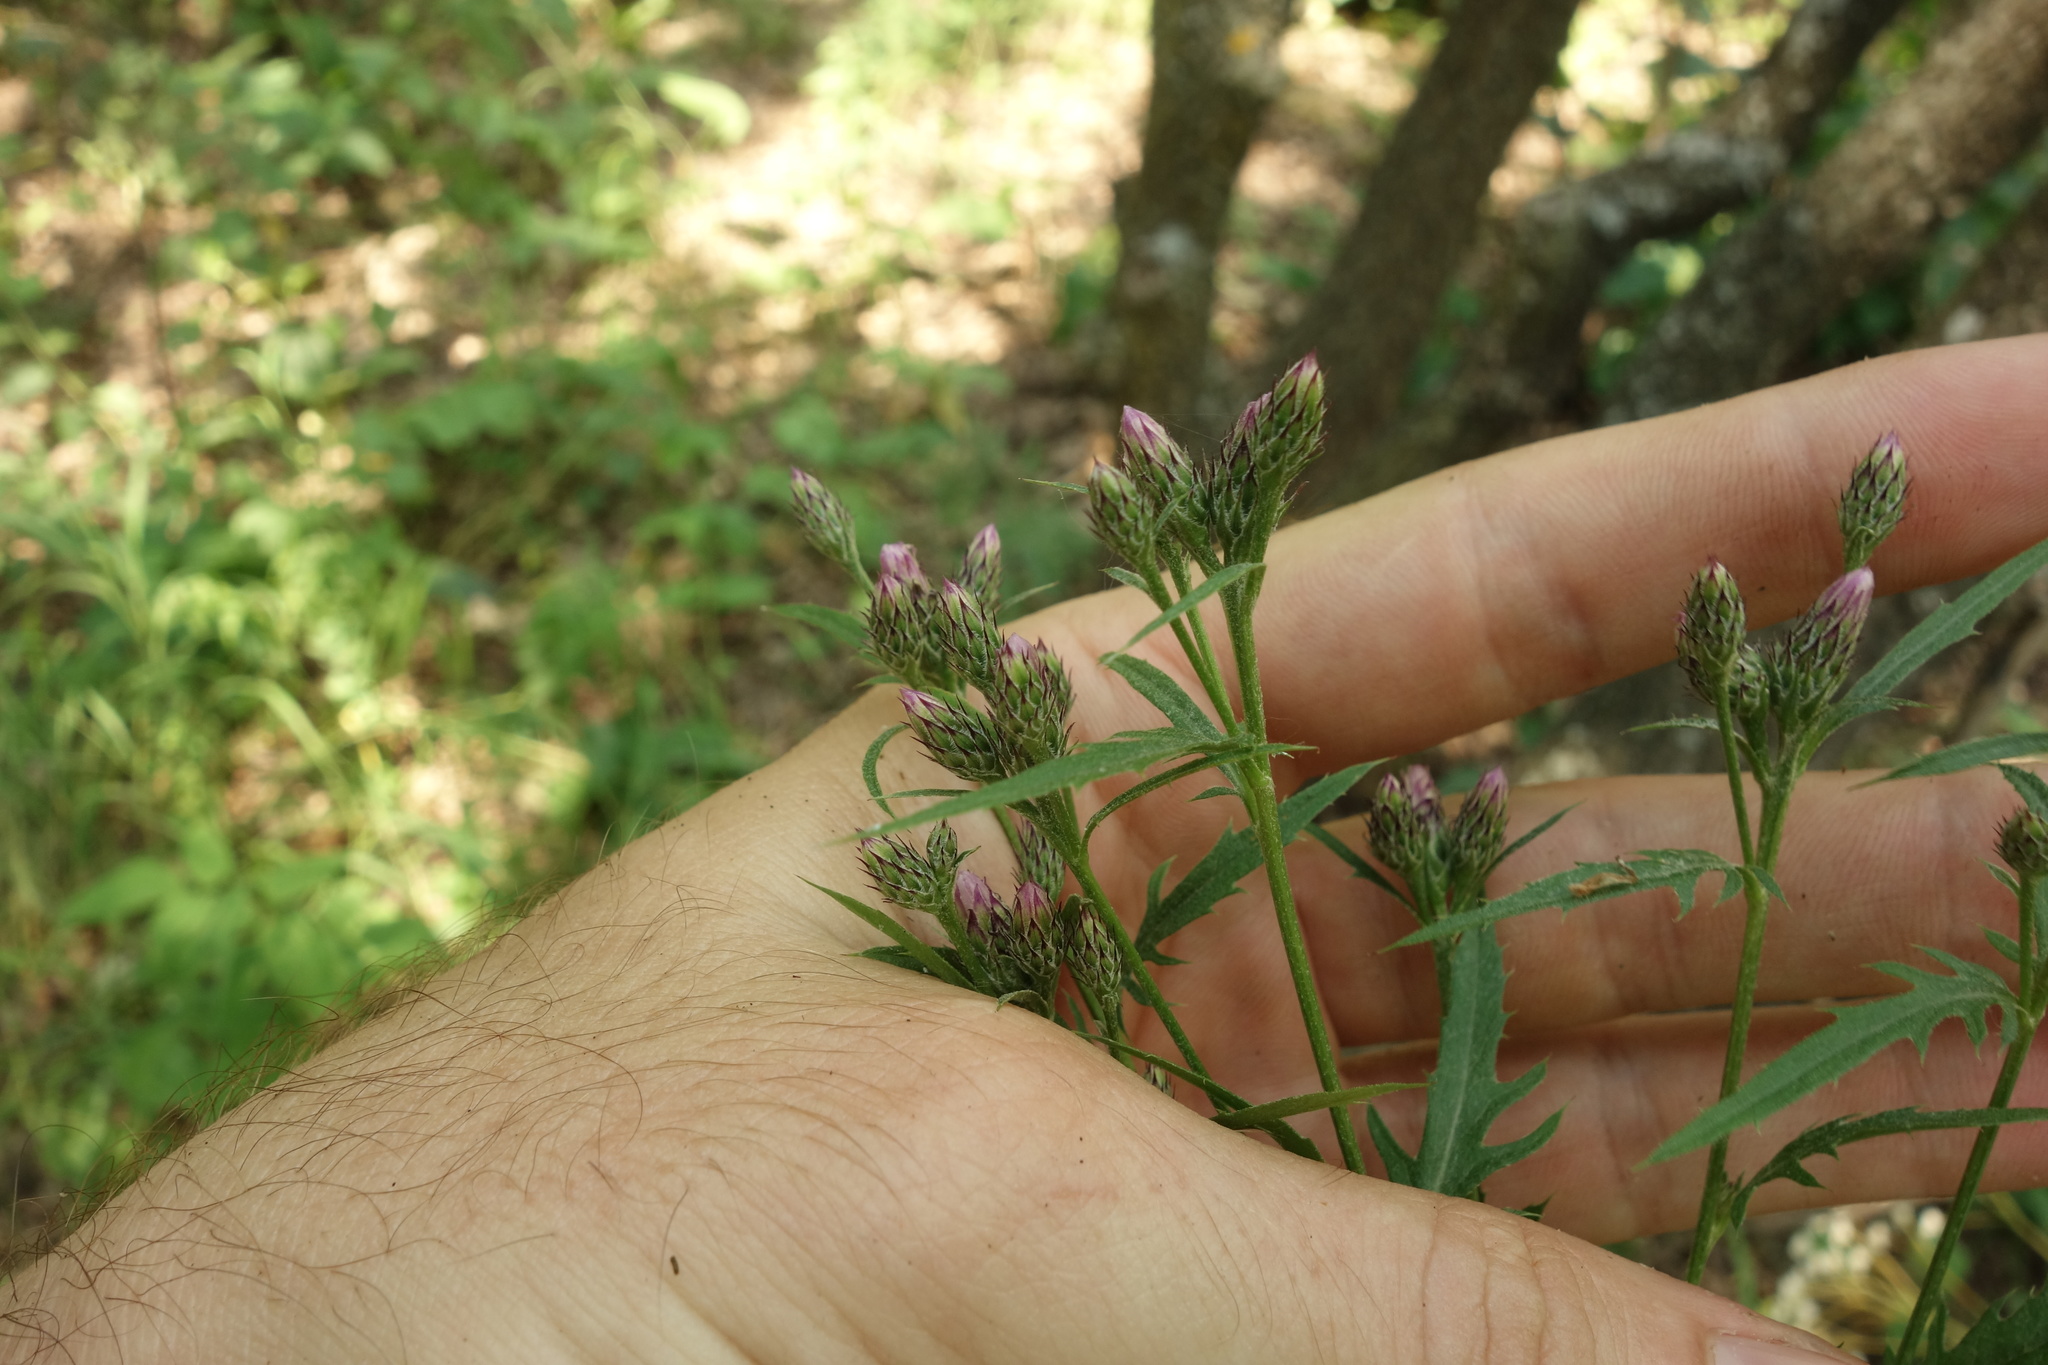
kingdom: Plantae
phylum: Tracheophyta
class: Magnoliopsida
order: Asterales
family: Asteraceae
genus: Serratula
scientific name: Serratula tinctoria
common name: Saw-wort
